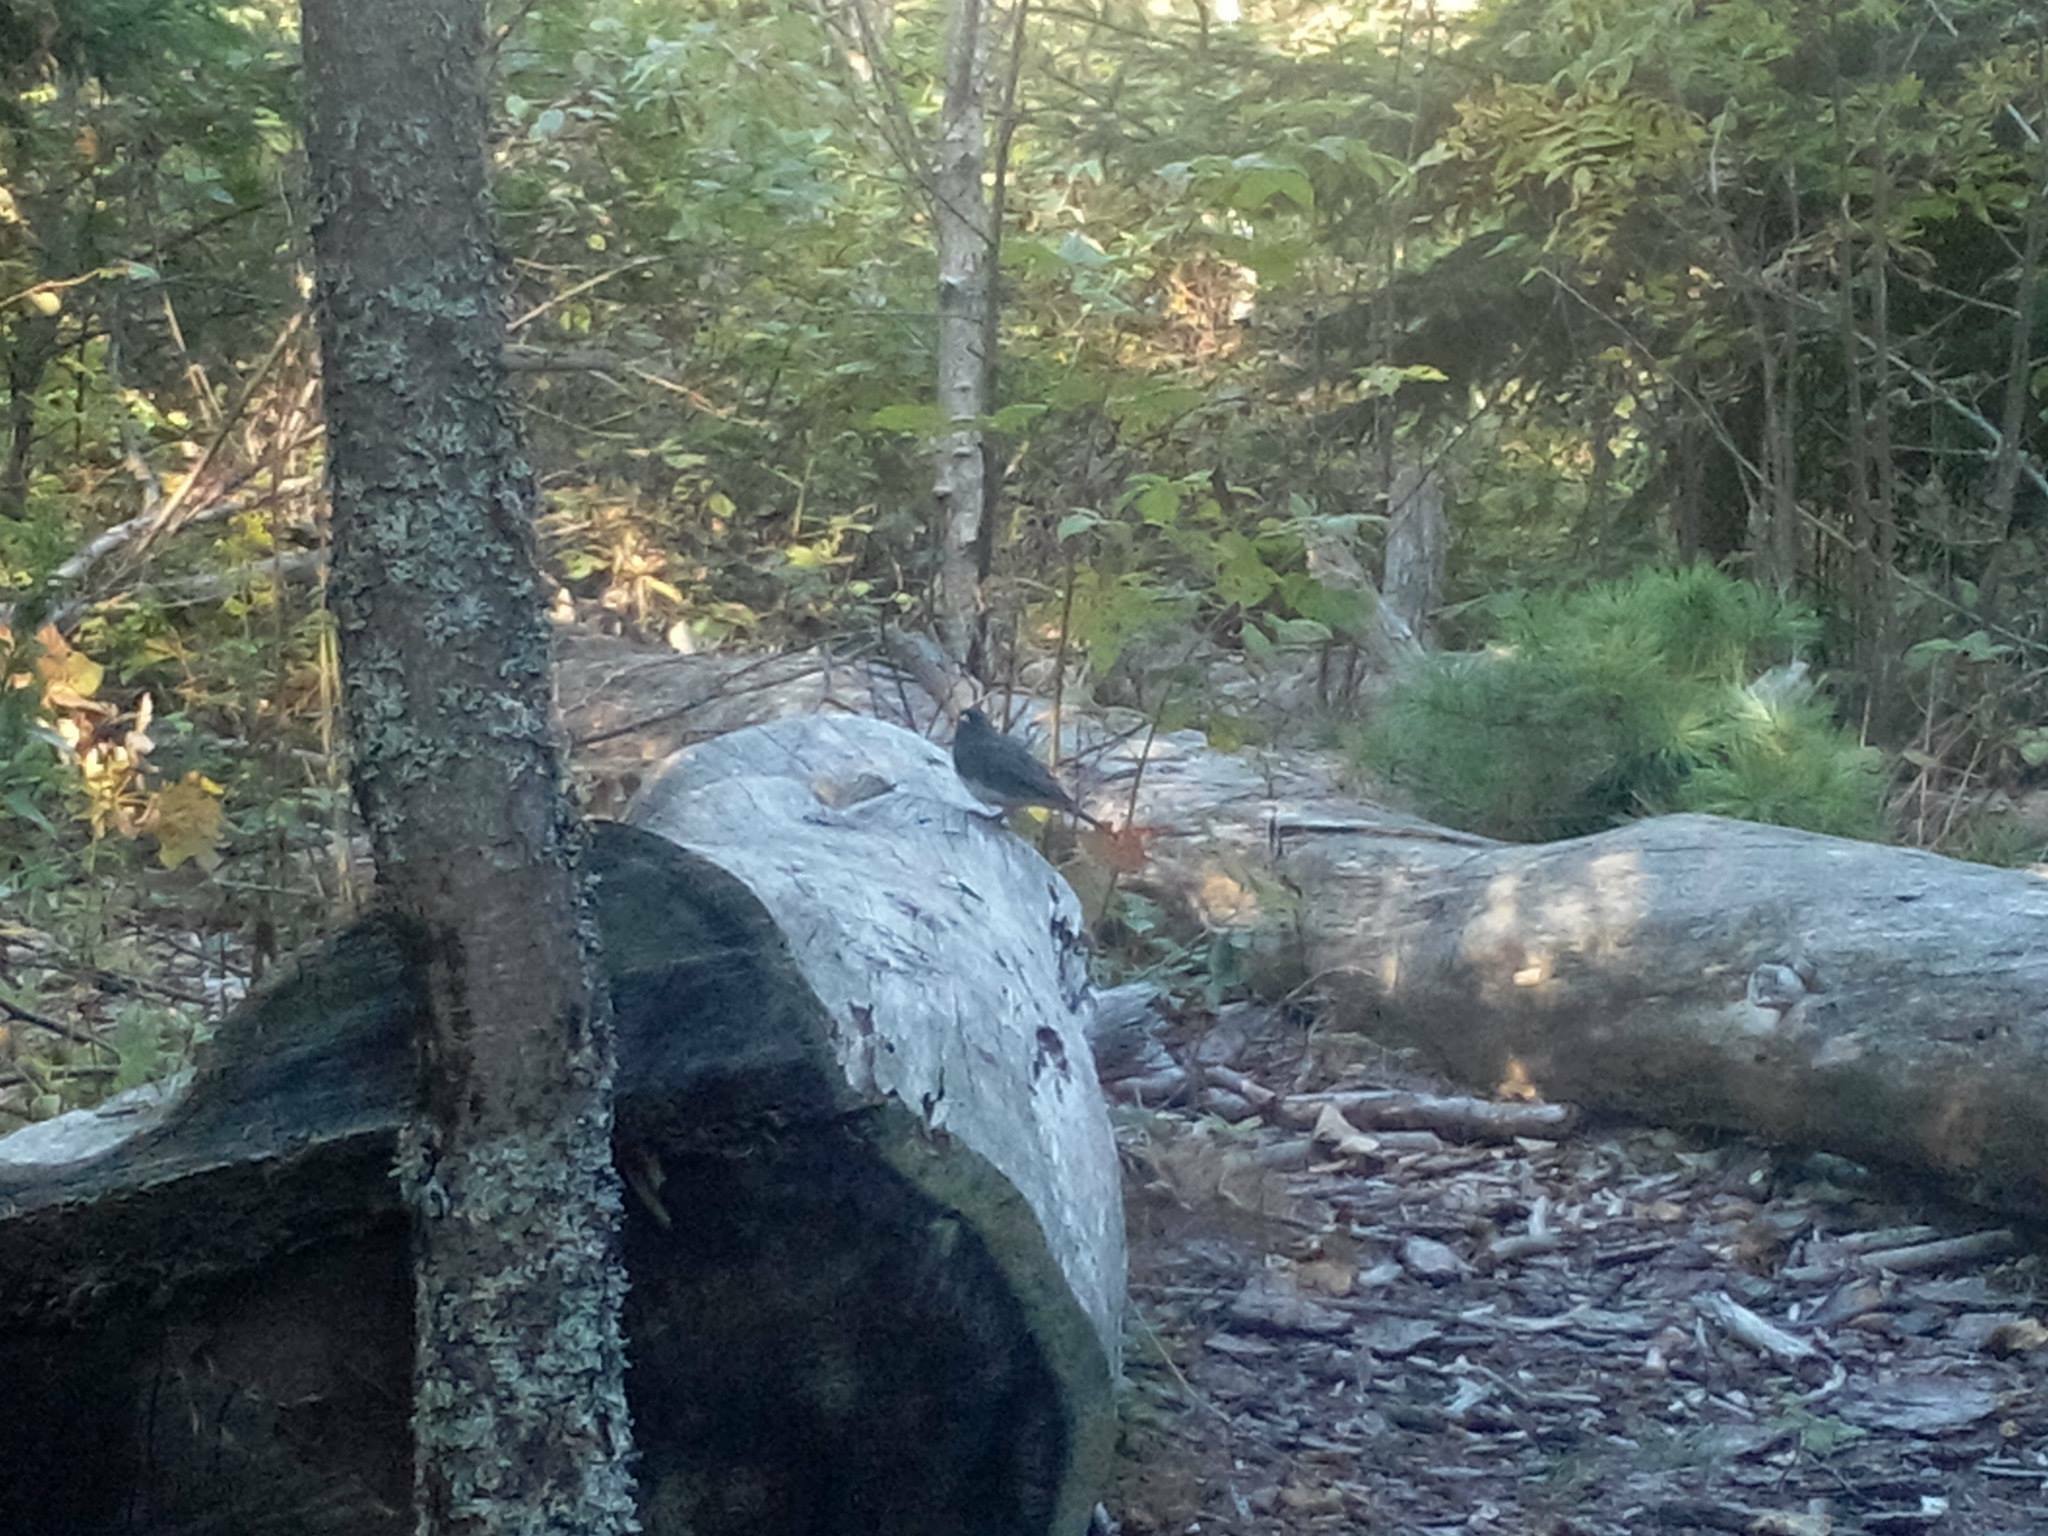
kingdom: Animalia
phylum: Chordata
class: Aves
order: Passeriformes
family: Passerellidae
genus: Junco
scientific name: Junco hyemalis
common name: Dark-eyed junco
